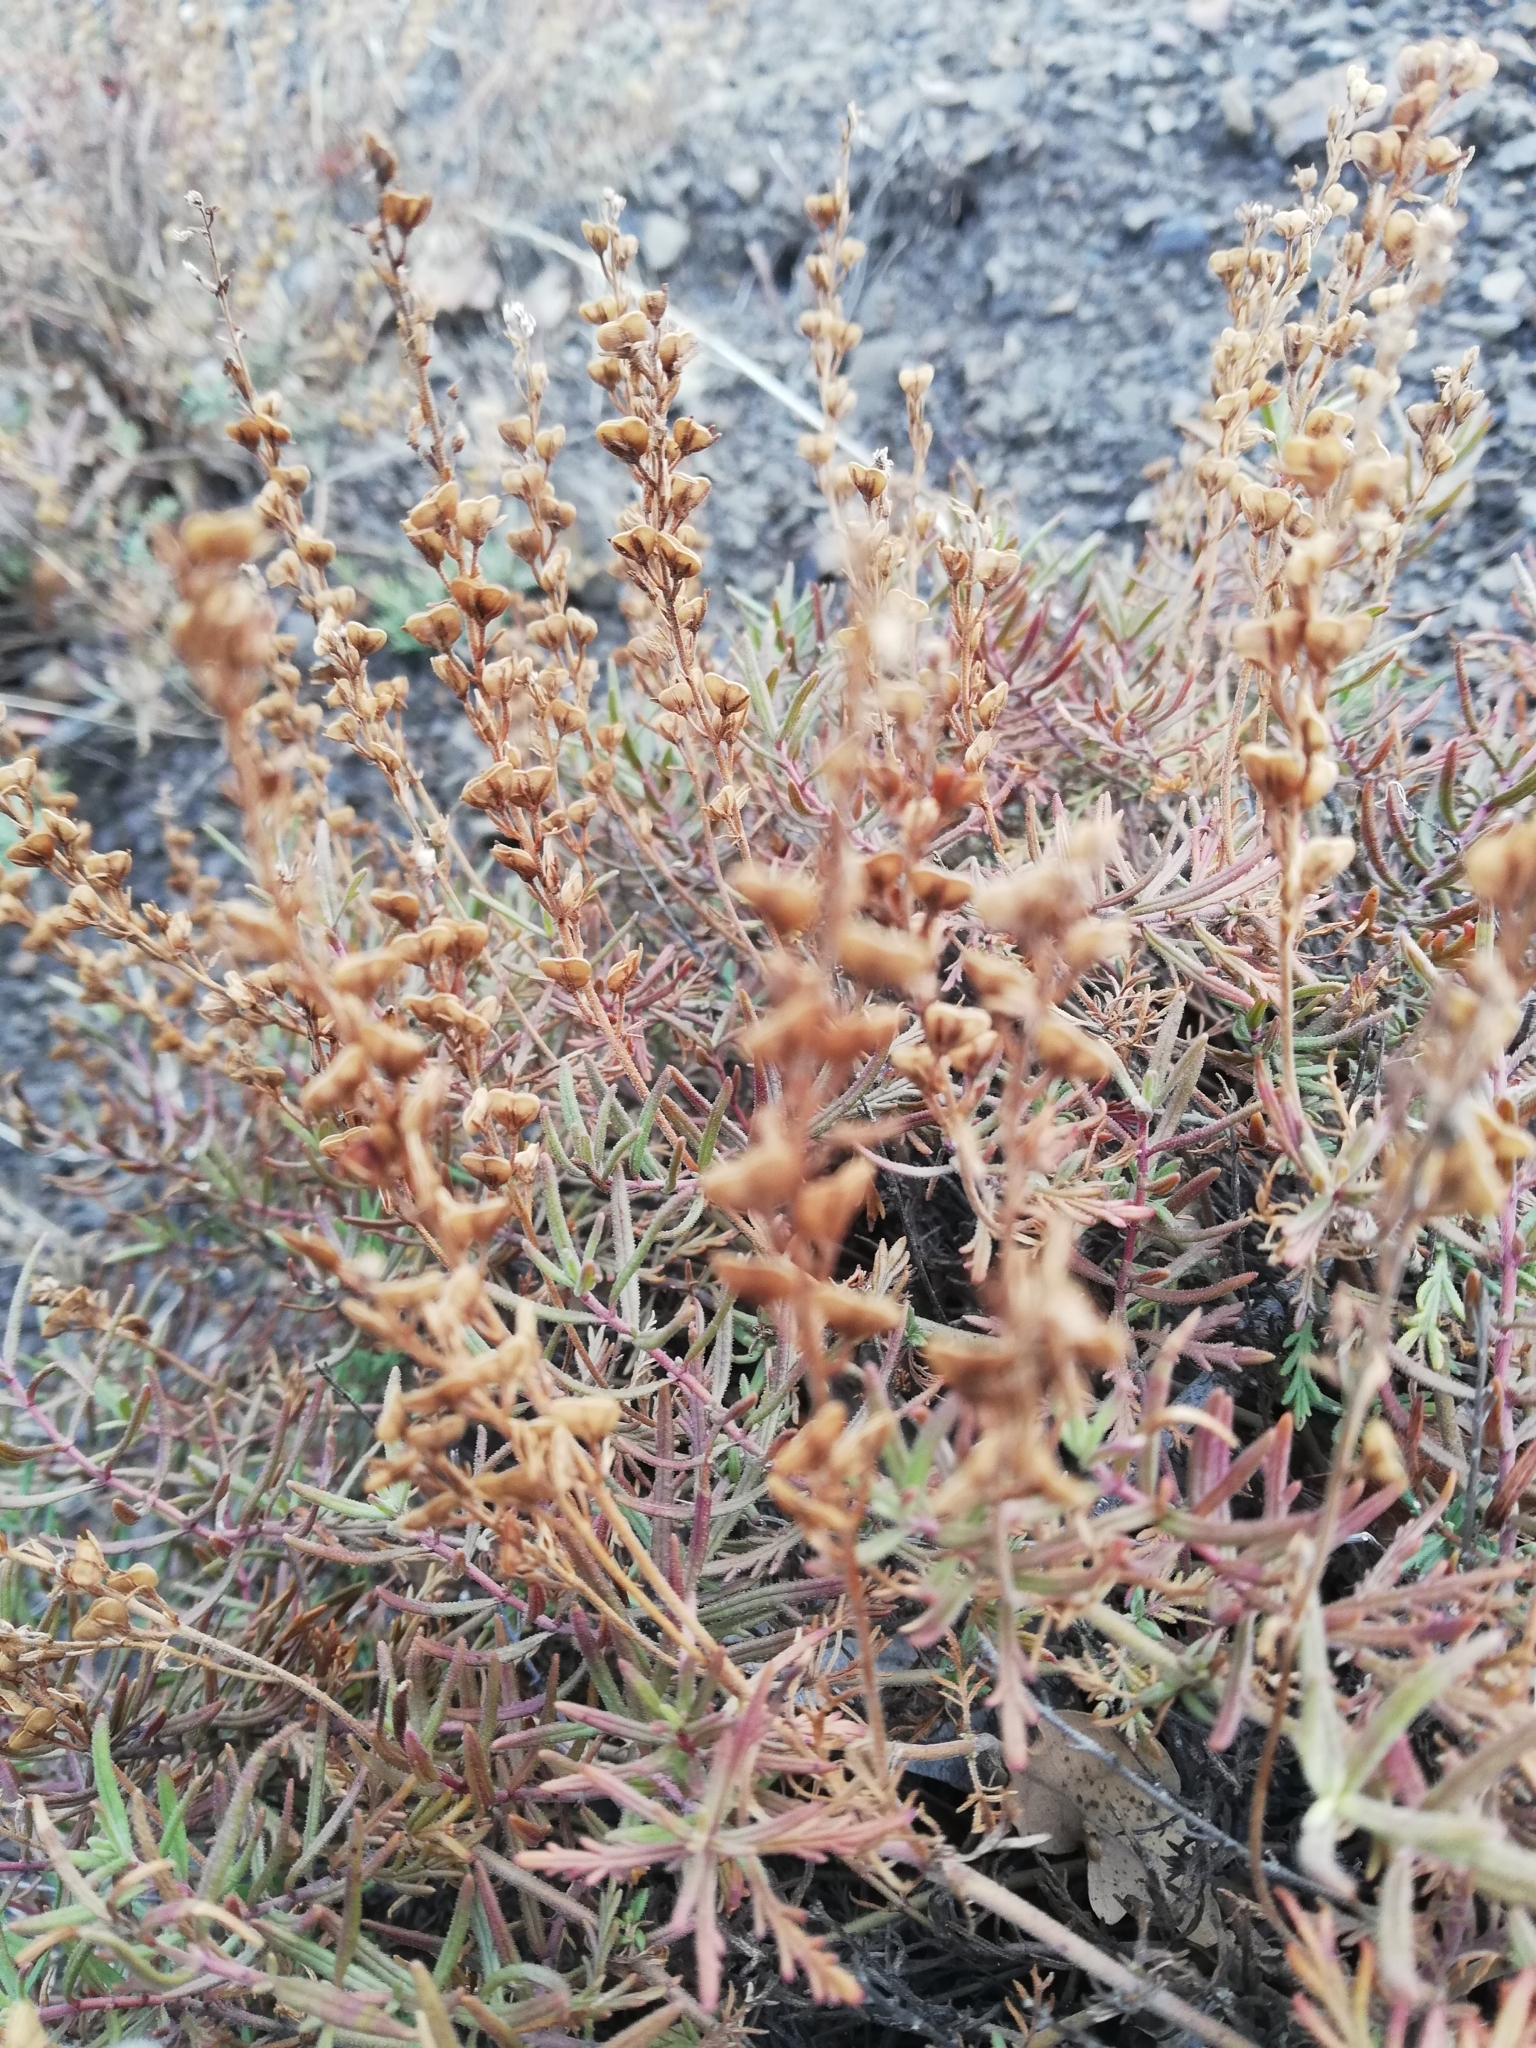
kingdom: Plantae
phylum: Tracheophyta
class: Magnoliopsida
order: Lamiales
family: Plantaginaceae
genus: Veronica
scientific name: Veronica taurica
